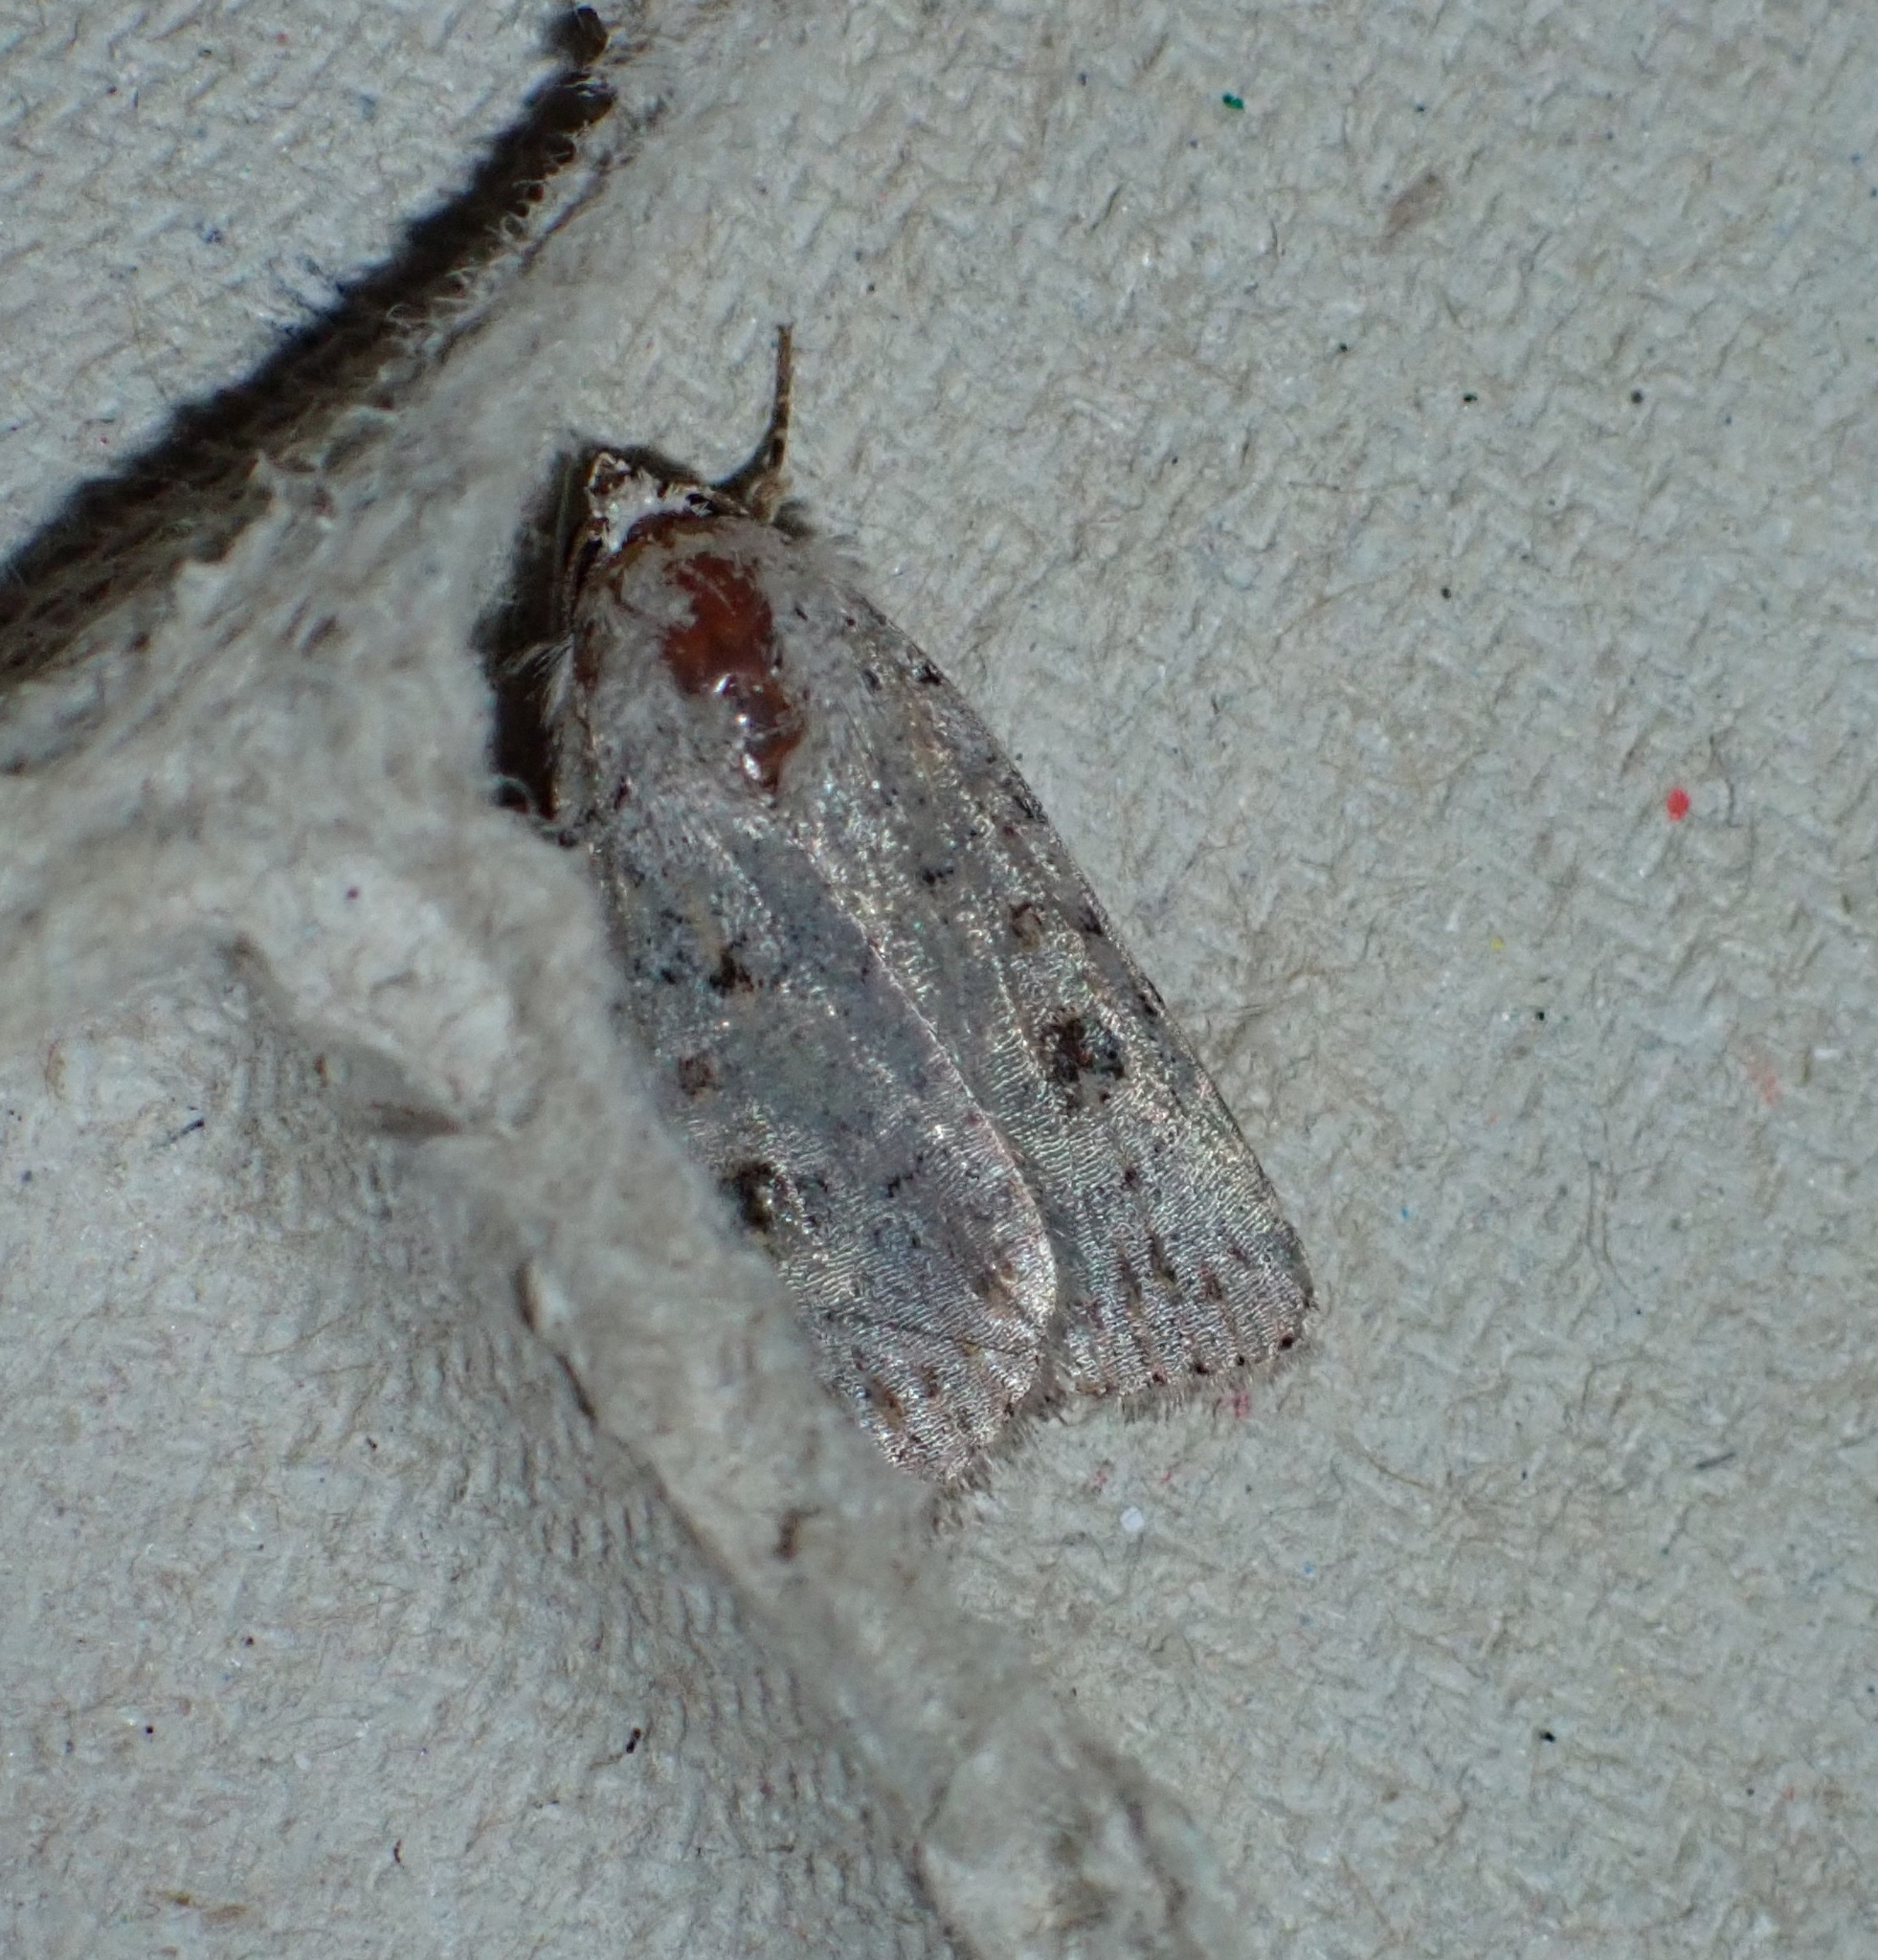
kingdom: Animalia
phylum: Arthropoda
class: Insecta
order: Lepidoptera
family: Noctuidae
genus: Caradrina
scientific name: Caradrina rebeli
